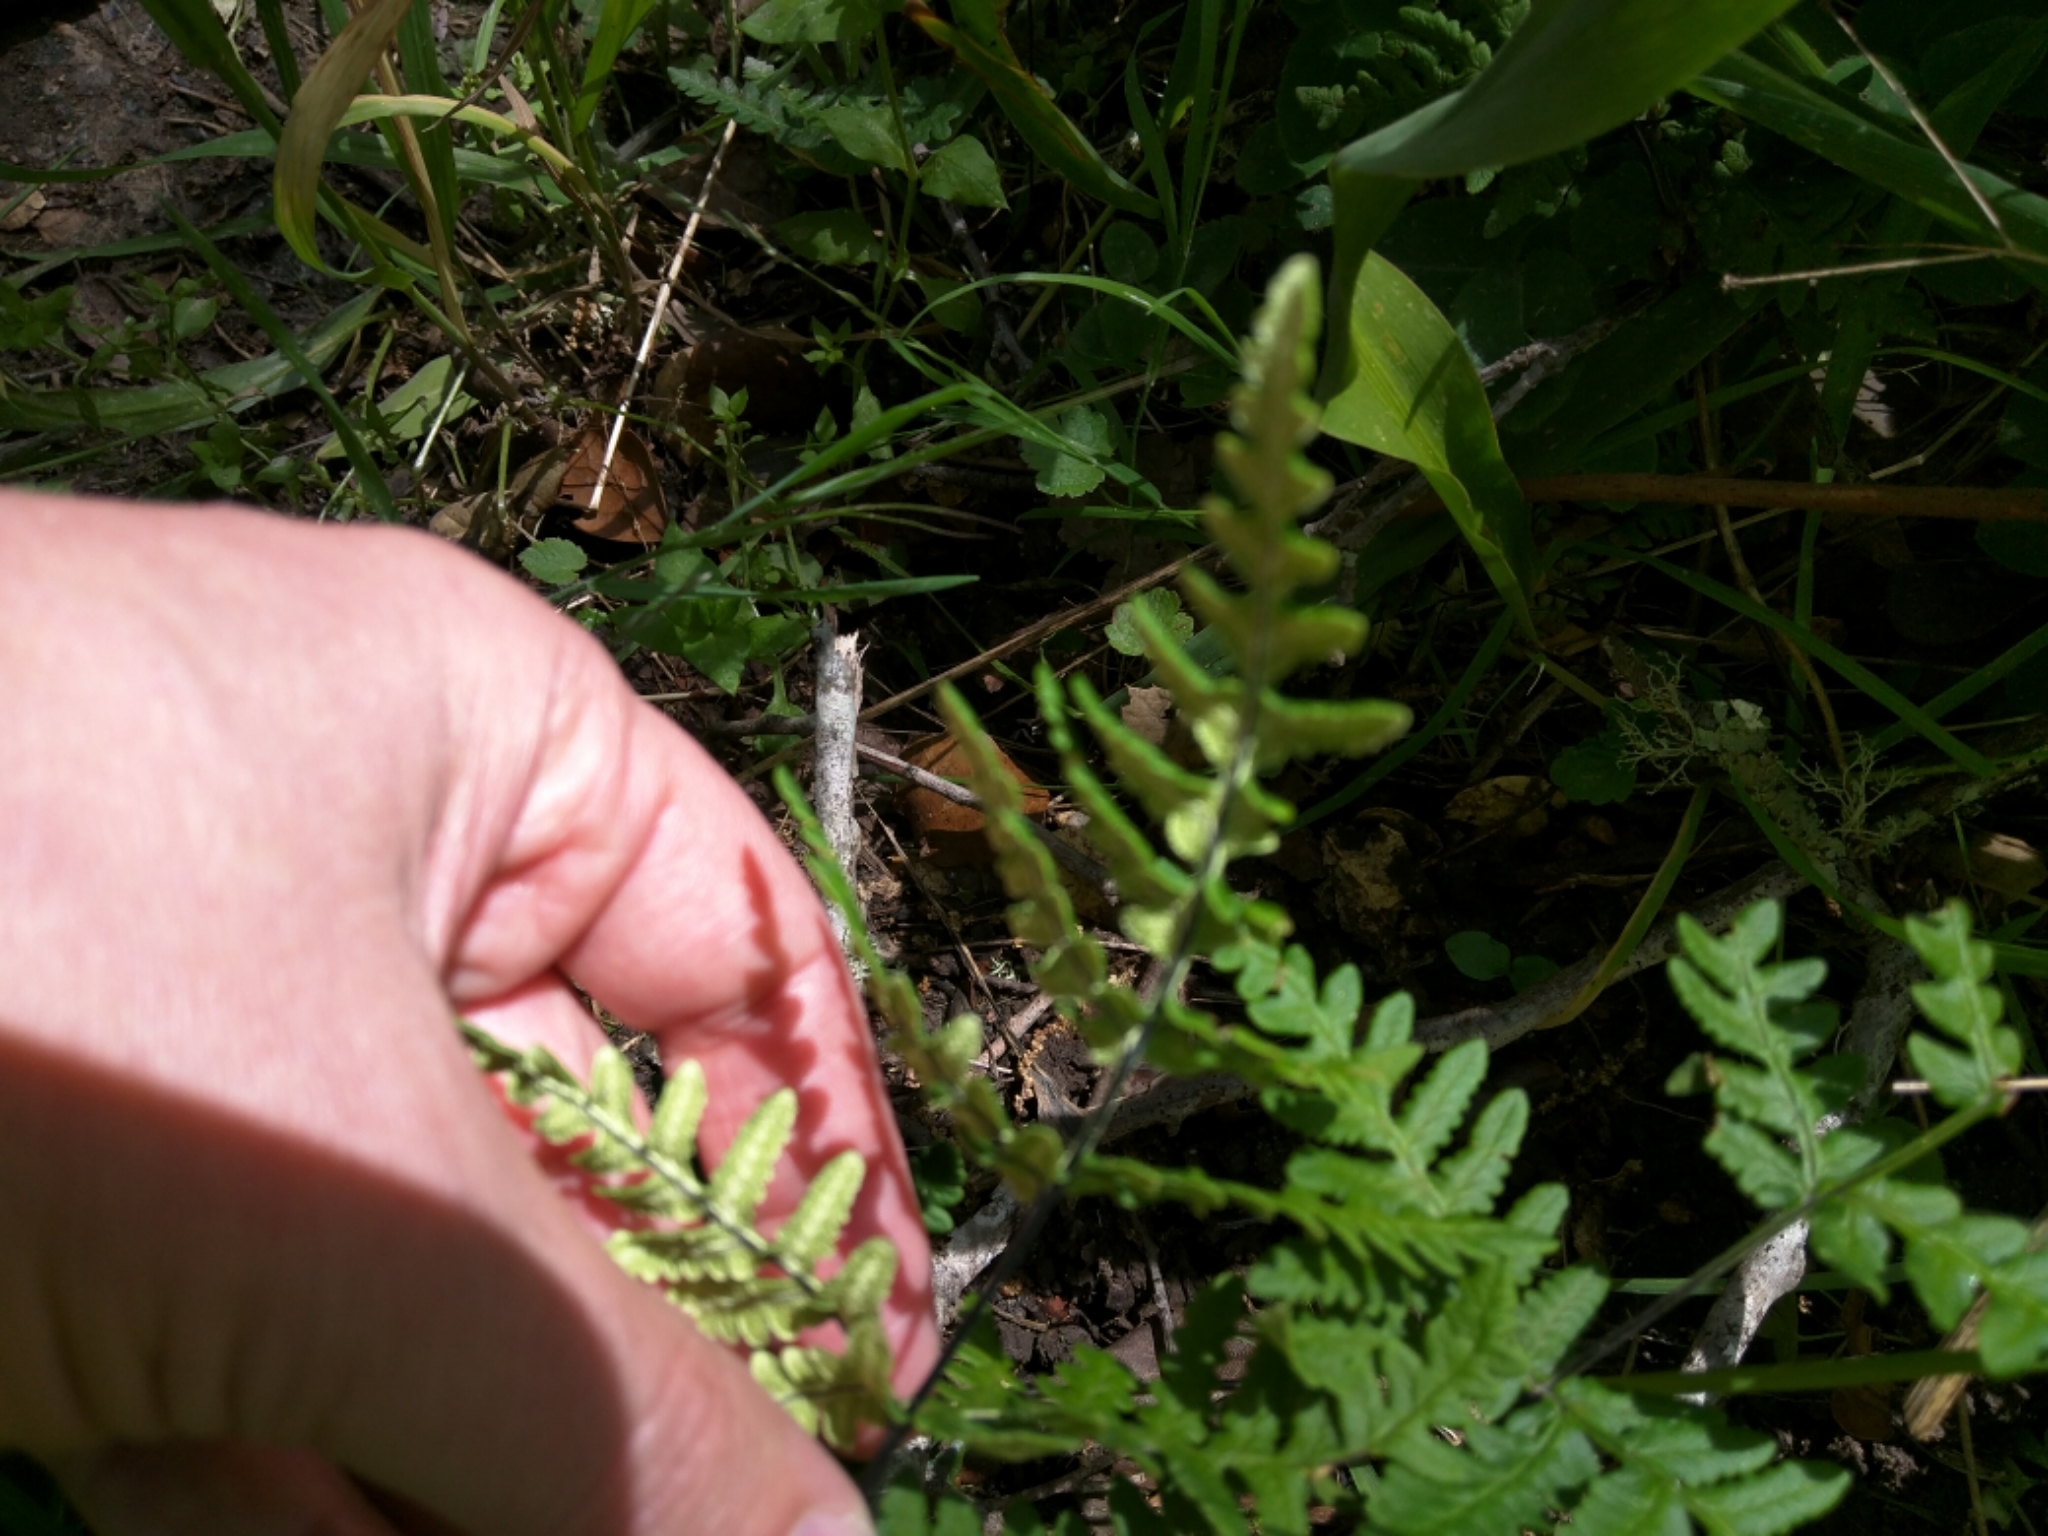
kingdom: Plantae
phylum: Tracheophyta
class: Polypodiopsida
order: Polypodiales
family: Pteridaceae
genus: Pentagramma
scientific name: Pentagramma triangularis
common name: Gold fern
